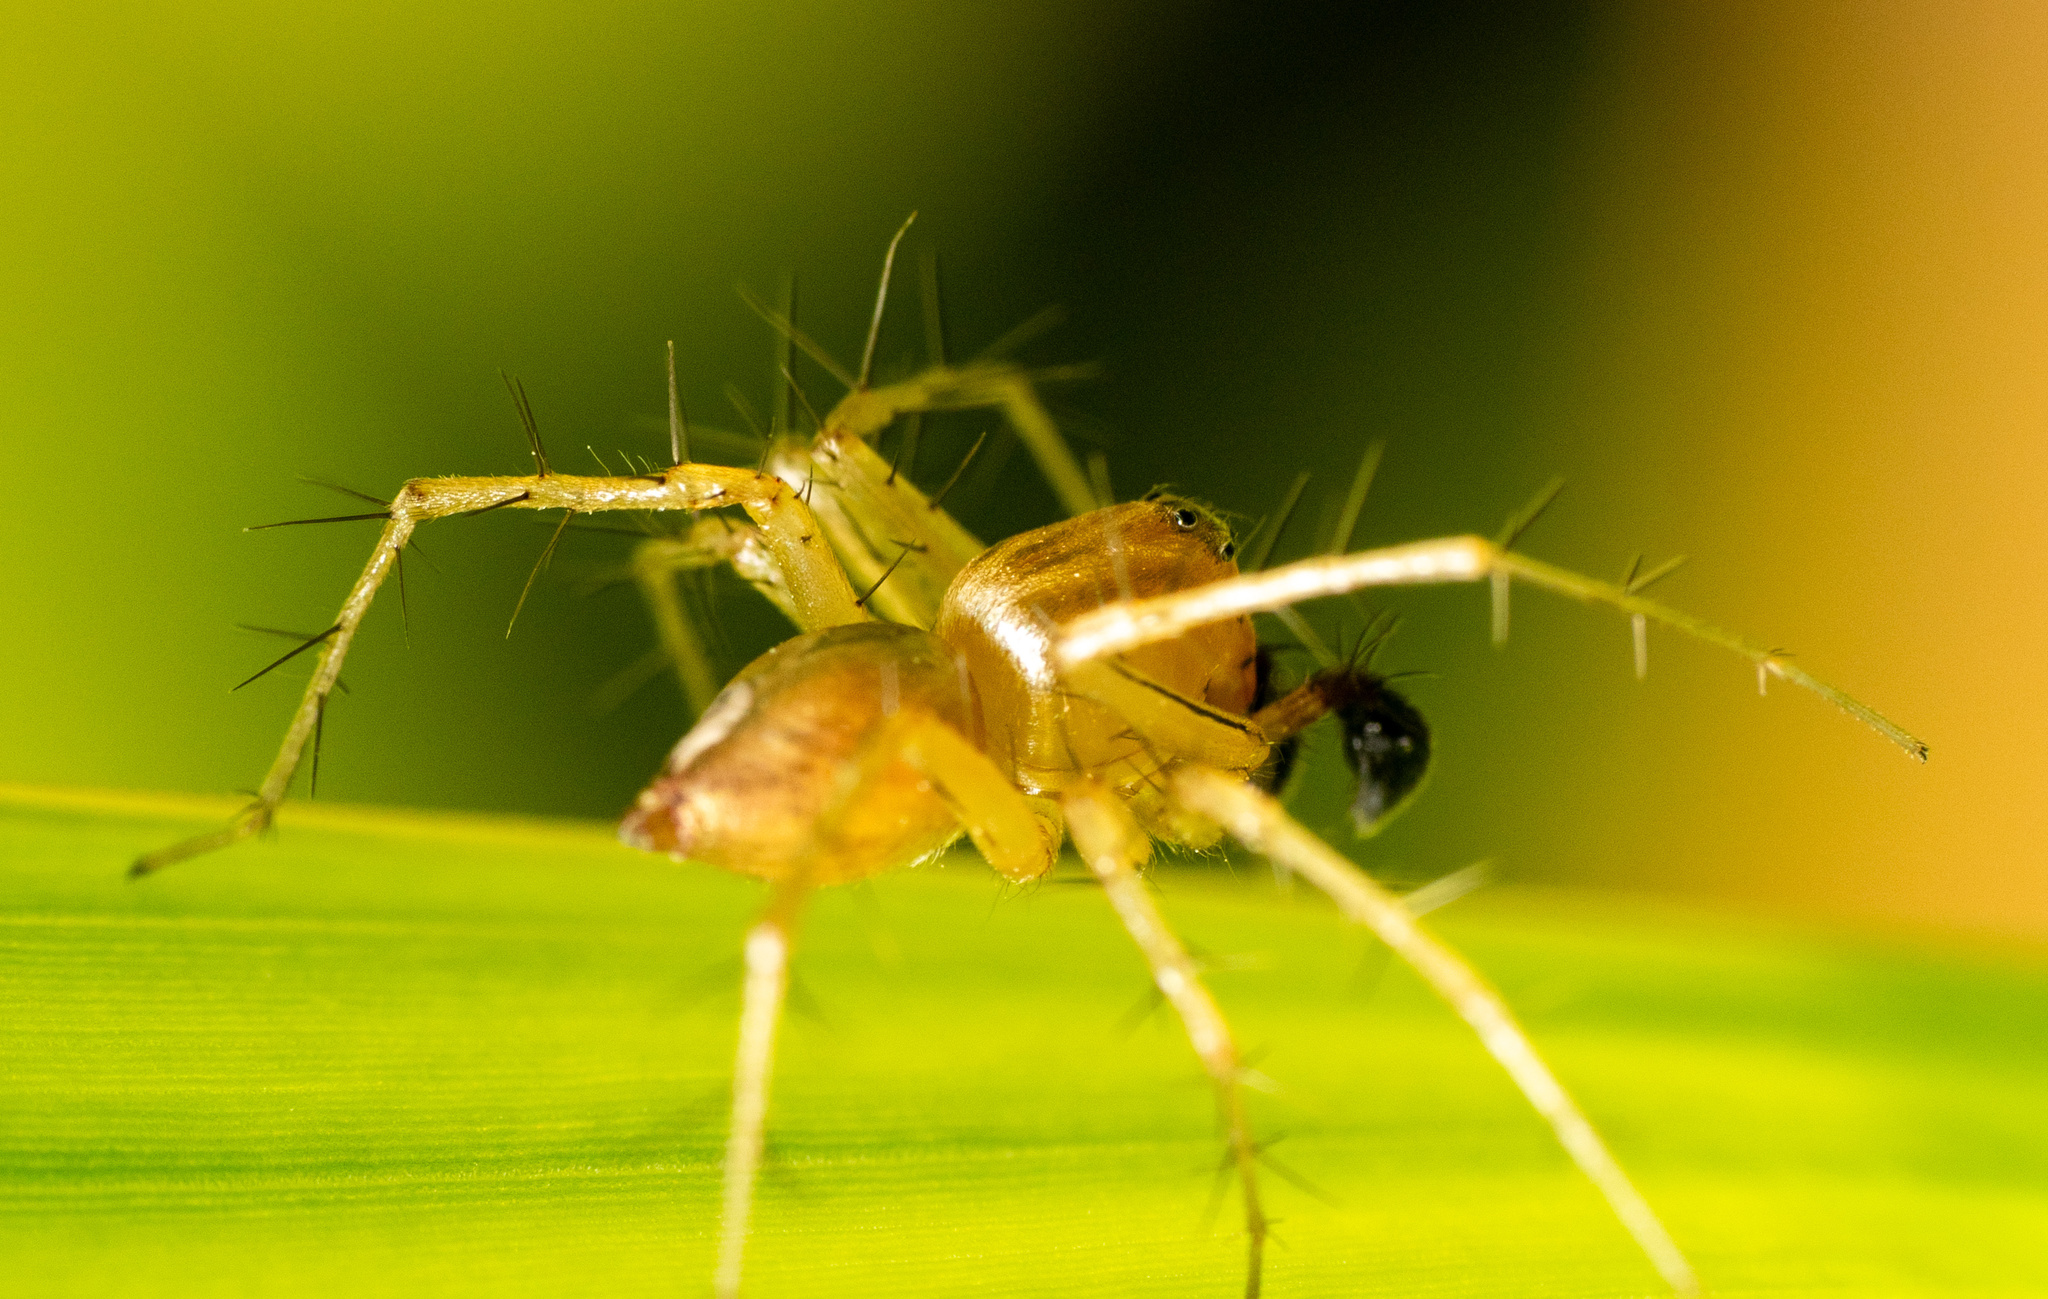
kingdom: Animalia
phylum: Arthropoda
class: Arachnida
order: Araneae
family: Oxyopidae
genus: Oxyopes
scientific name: Oxyopes salticus
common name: Lynx spiders
